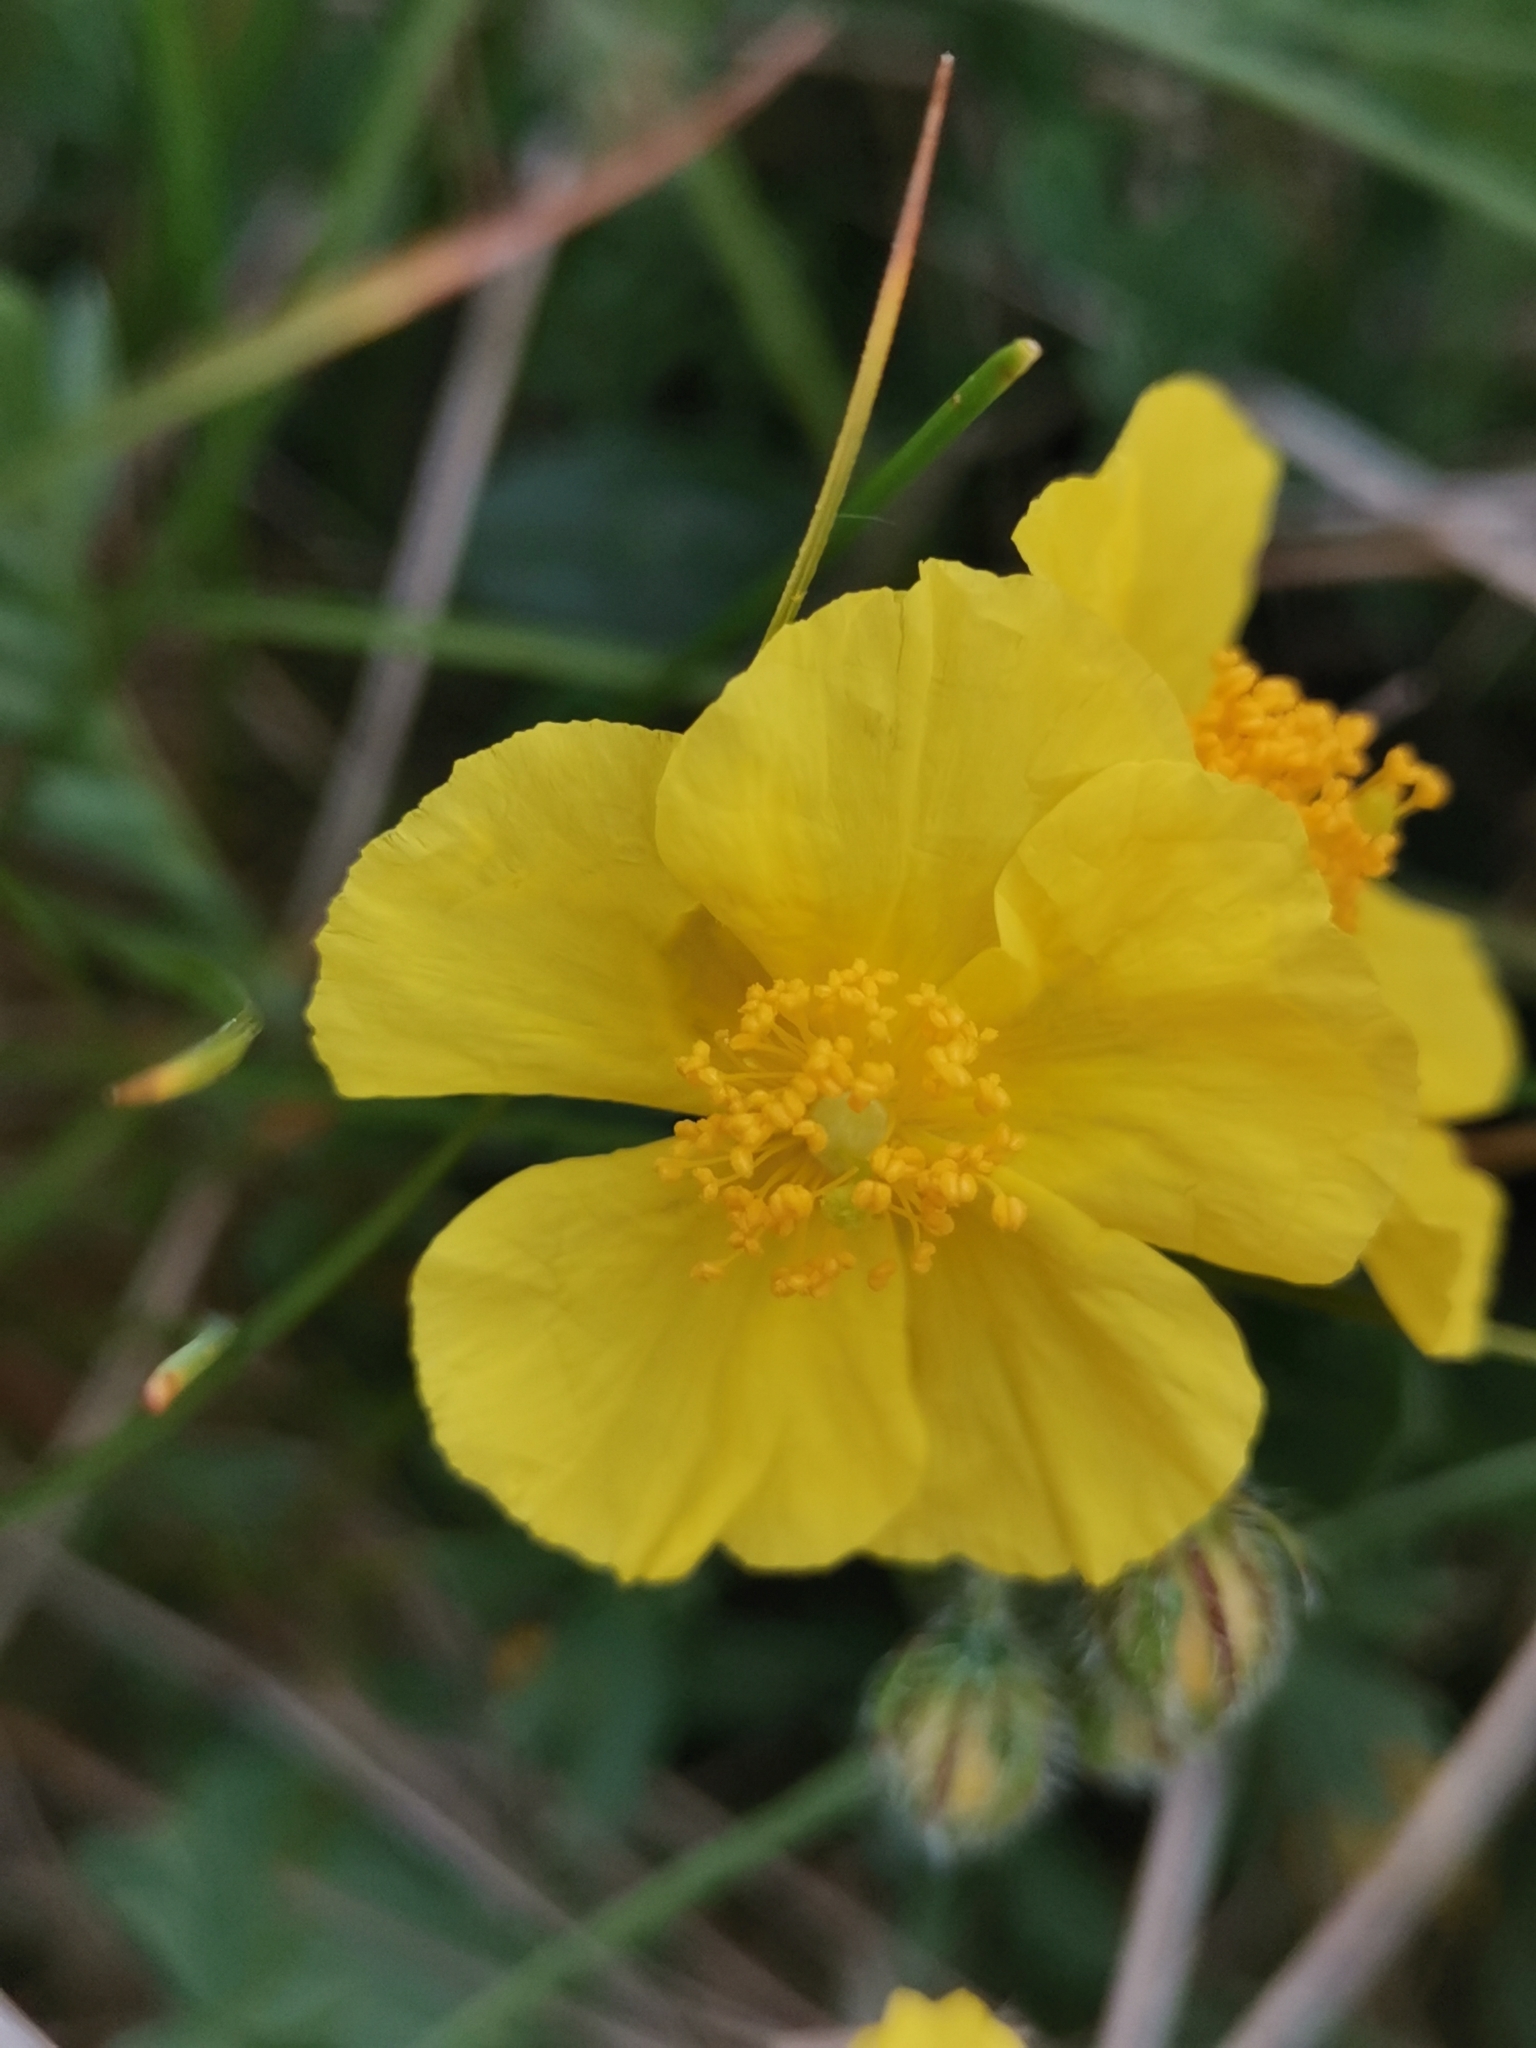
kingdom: Plantae
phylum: Tracheophyta
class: Magnoliopsida
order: Malvales
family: Cistaceae
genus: Helianthemum
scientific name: Helianthemum nummularium
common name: Common rock-rose
